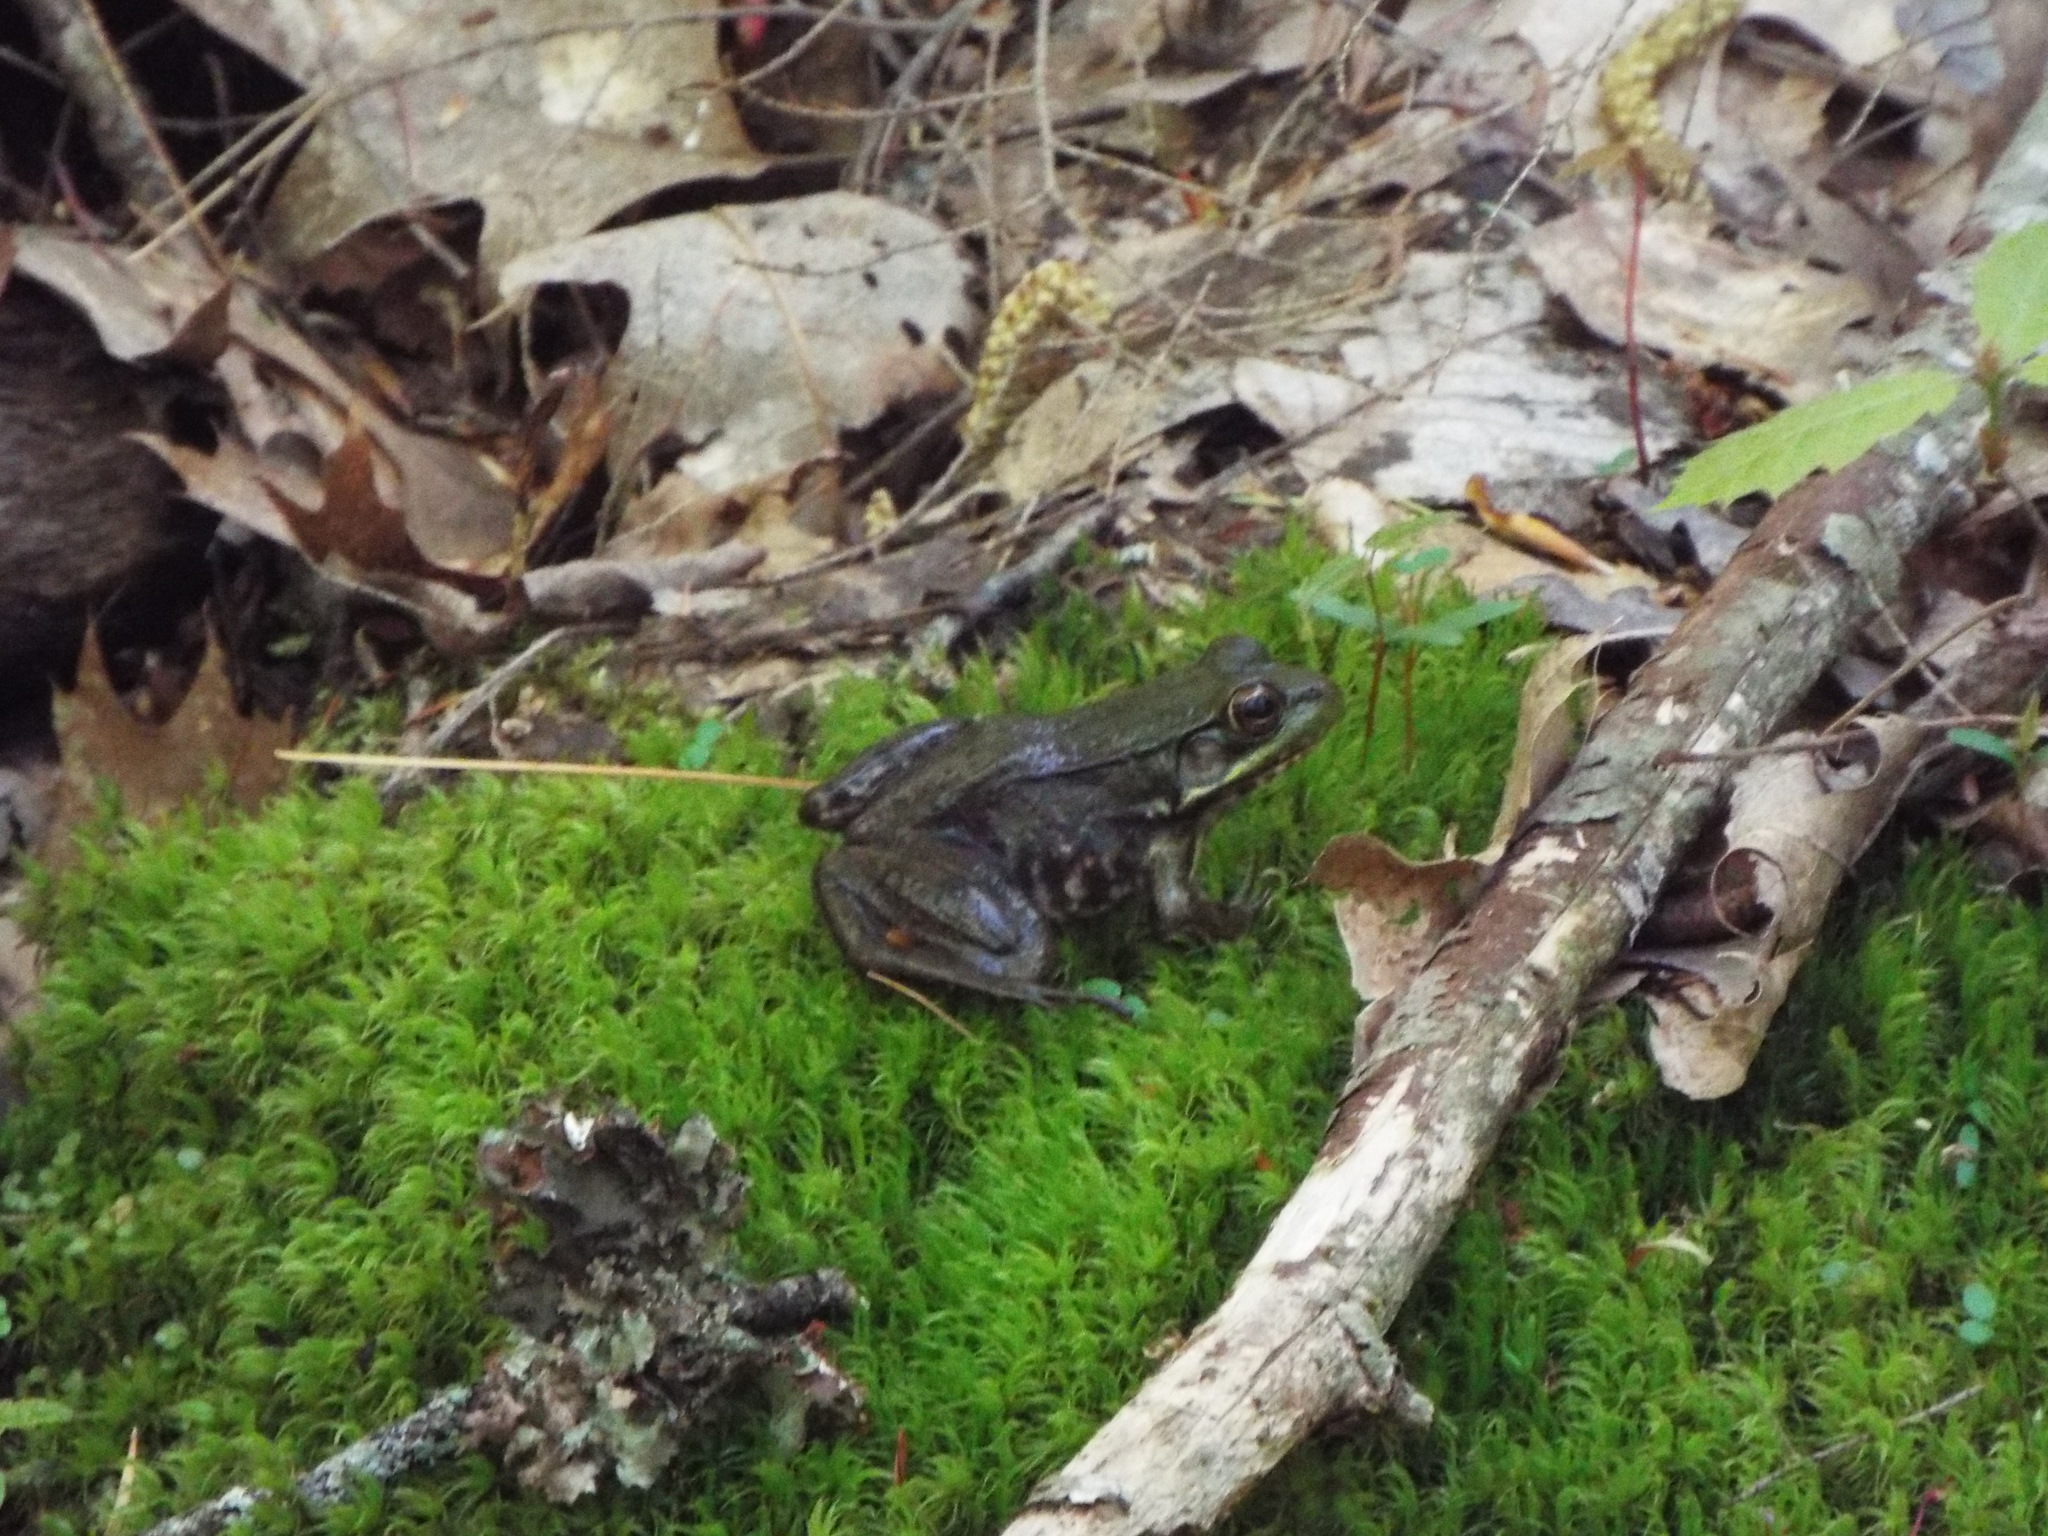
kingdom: Animalia
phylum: Chordata
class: Amphibia
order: Anura
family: Ranidae
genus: Lithobates
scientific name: Lithobates clamitans
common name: Green frog
